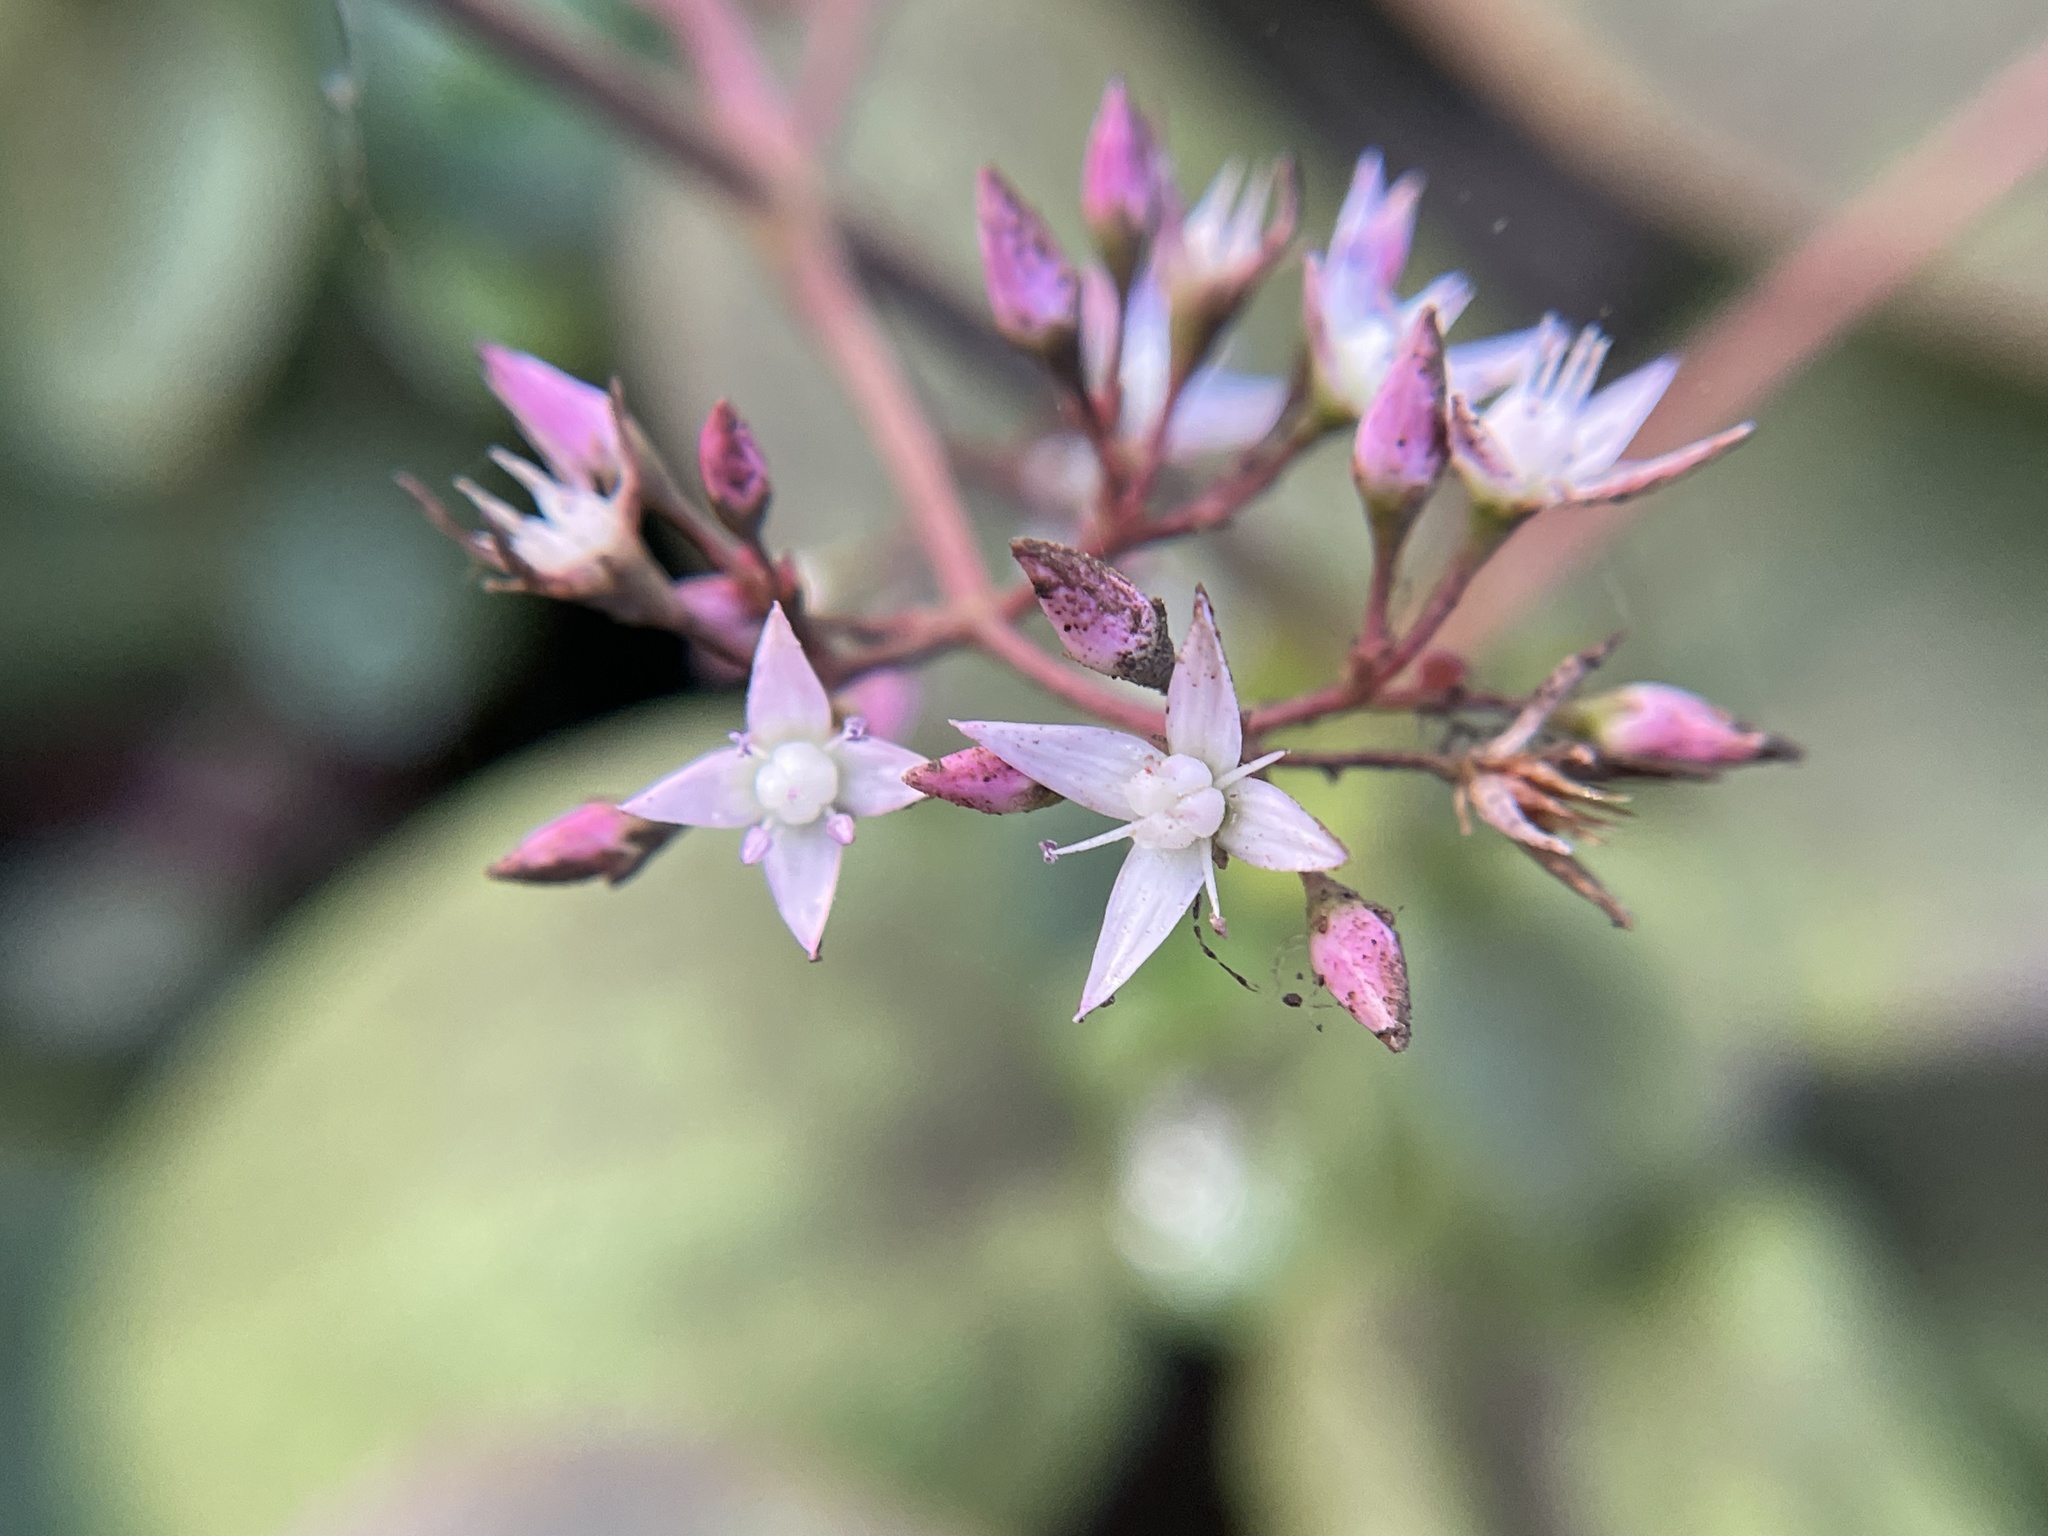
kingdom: Plantae
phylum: Tracheophyta
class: Magnoliopsida
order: Saxifragales
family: Crassulaceae
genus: Crassula
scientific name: Crassula multicava
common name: Cape province pygmyweed
